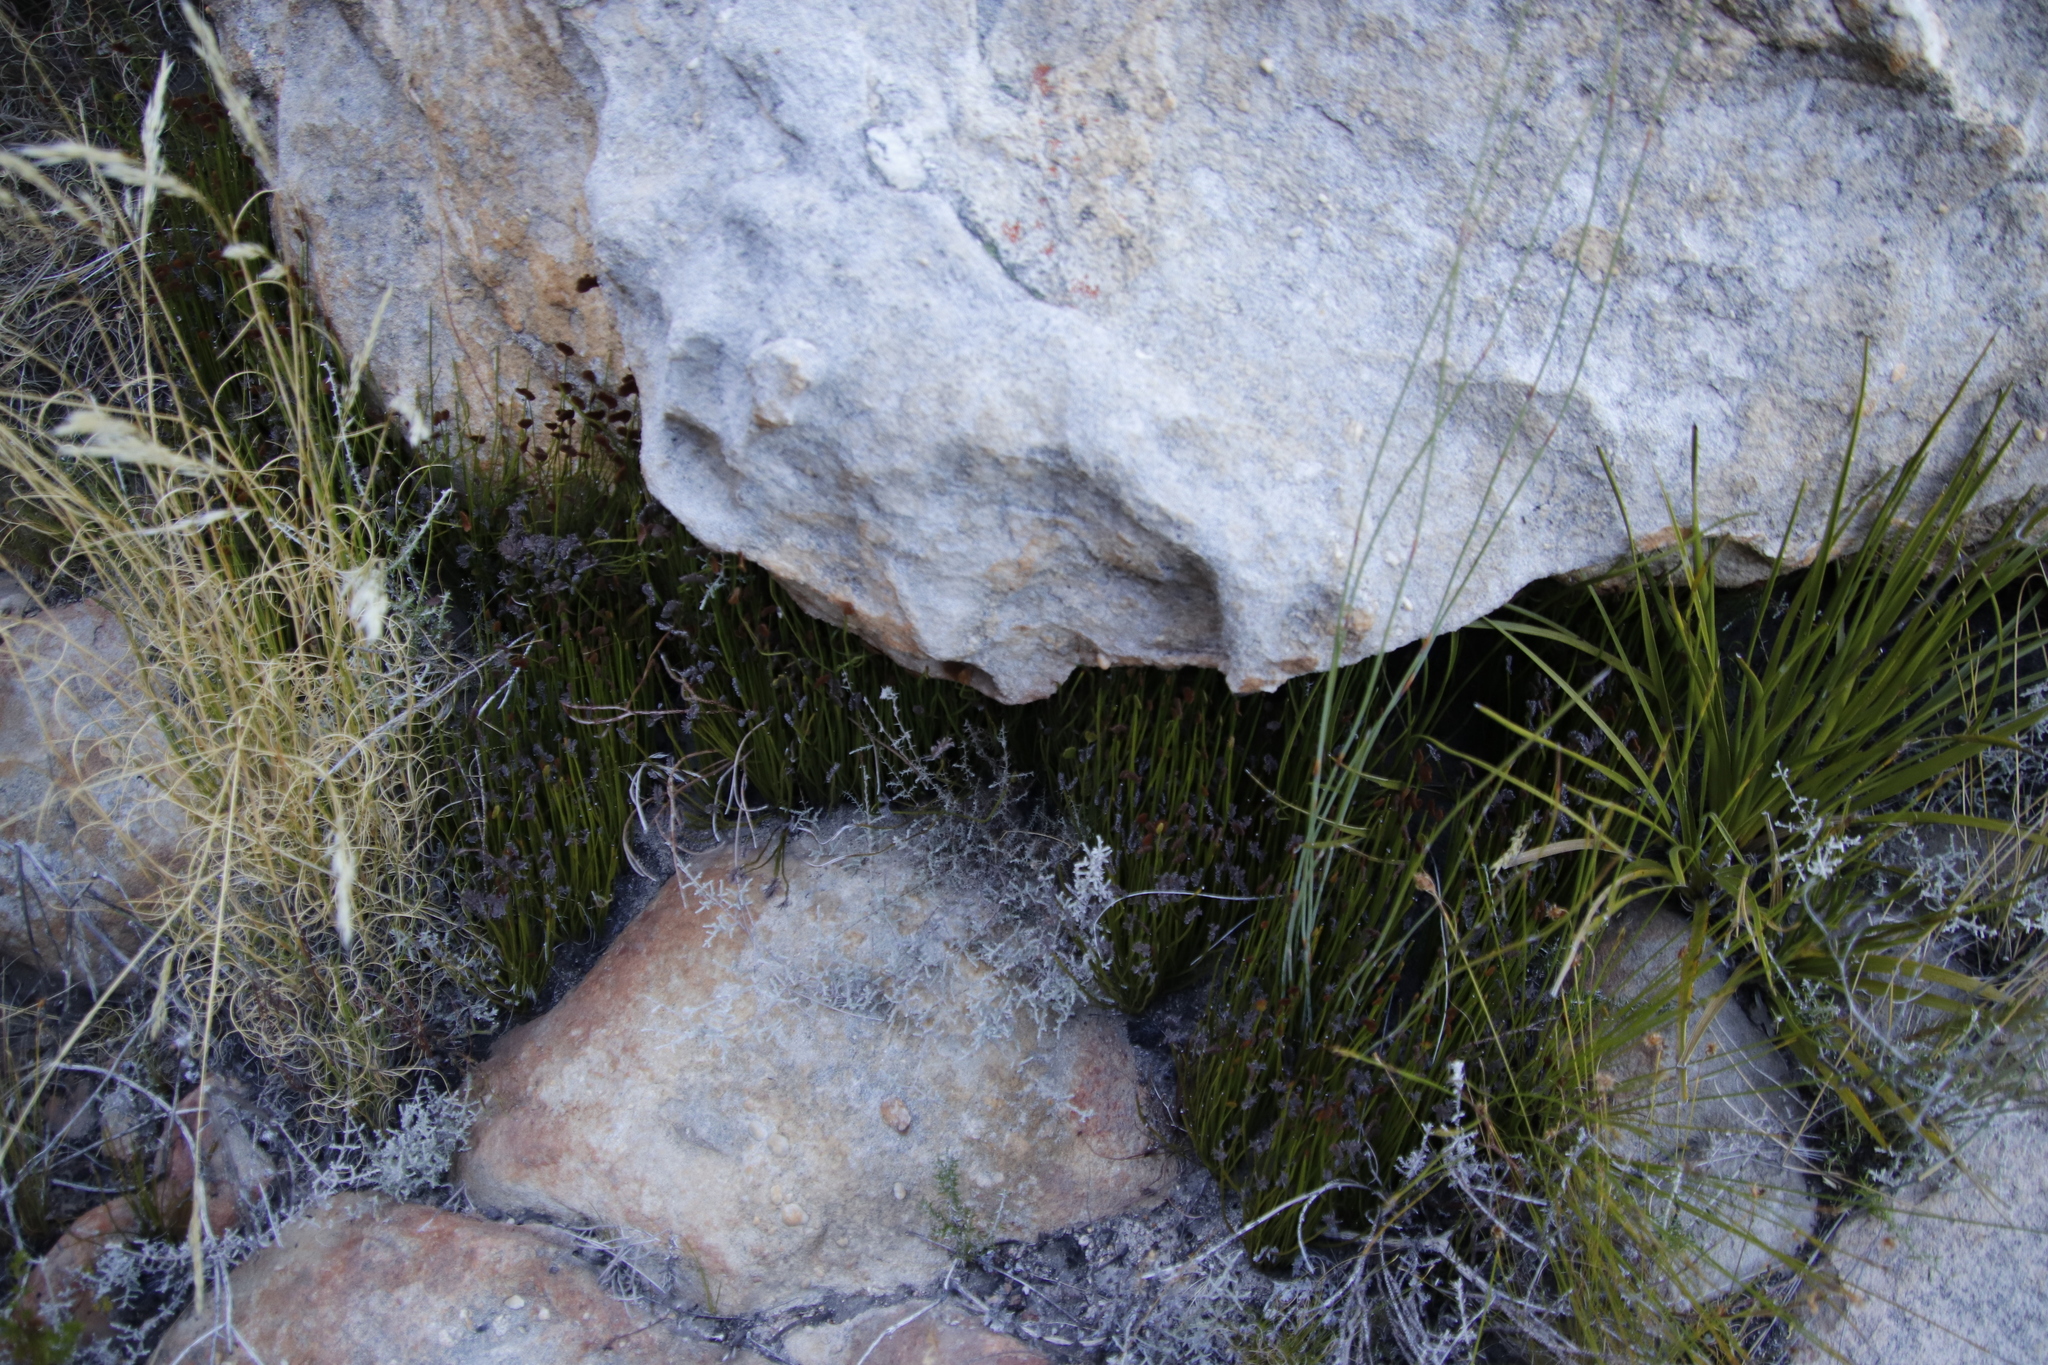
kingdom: Plantae
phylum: Tracheophyta
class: Polypodiopsida
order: Schizaeales
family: Schizaeaceae
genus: Schizaea
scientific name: Schizaea pectinata
